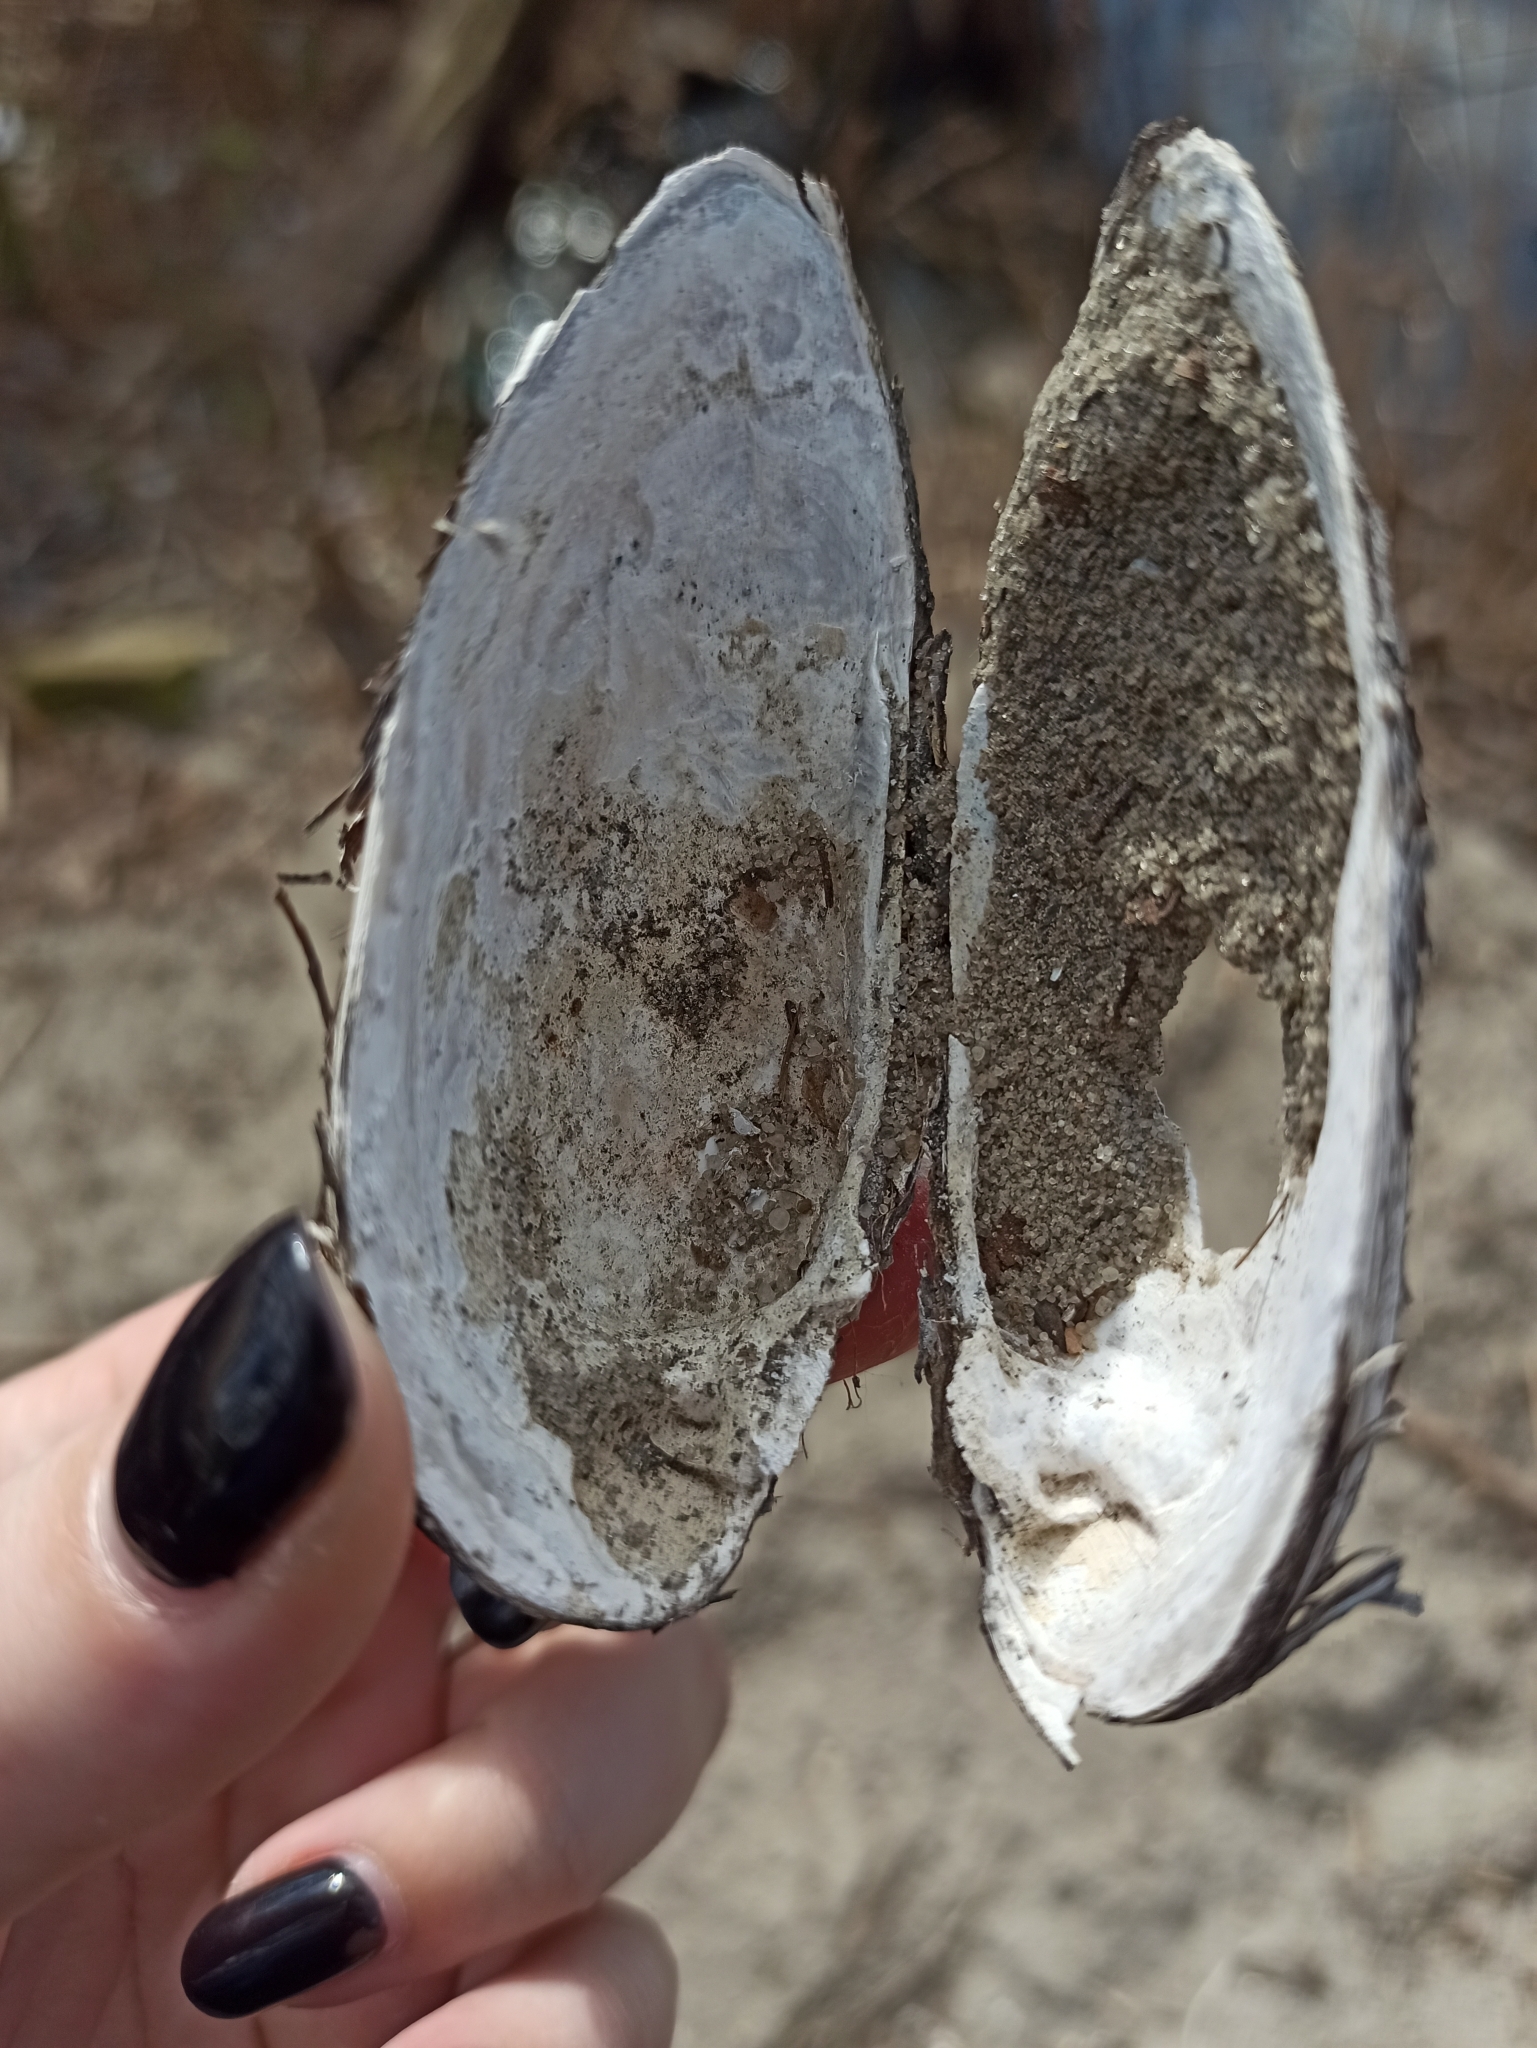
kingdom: Animalia
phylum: Mollusca
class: Bivalvia
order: Unionida
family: Unionidae
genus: Unio
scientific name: Unio tumidus
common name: Swollen river mussel
